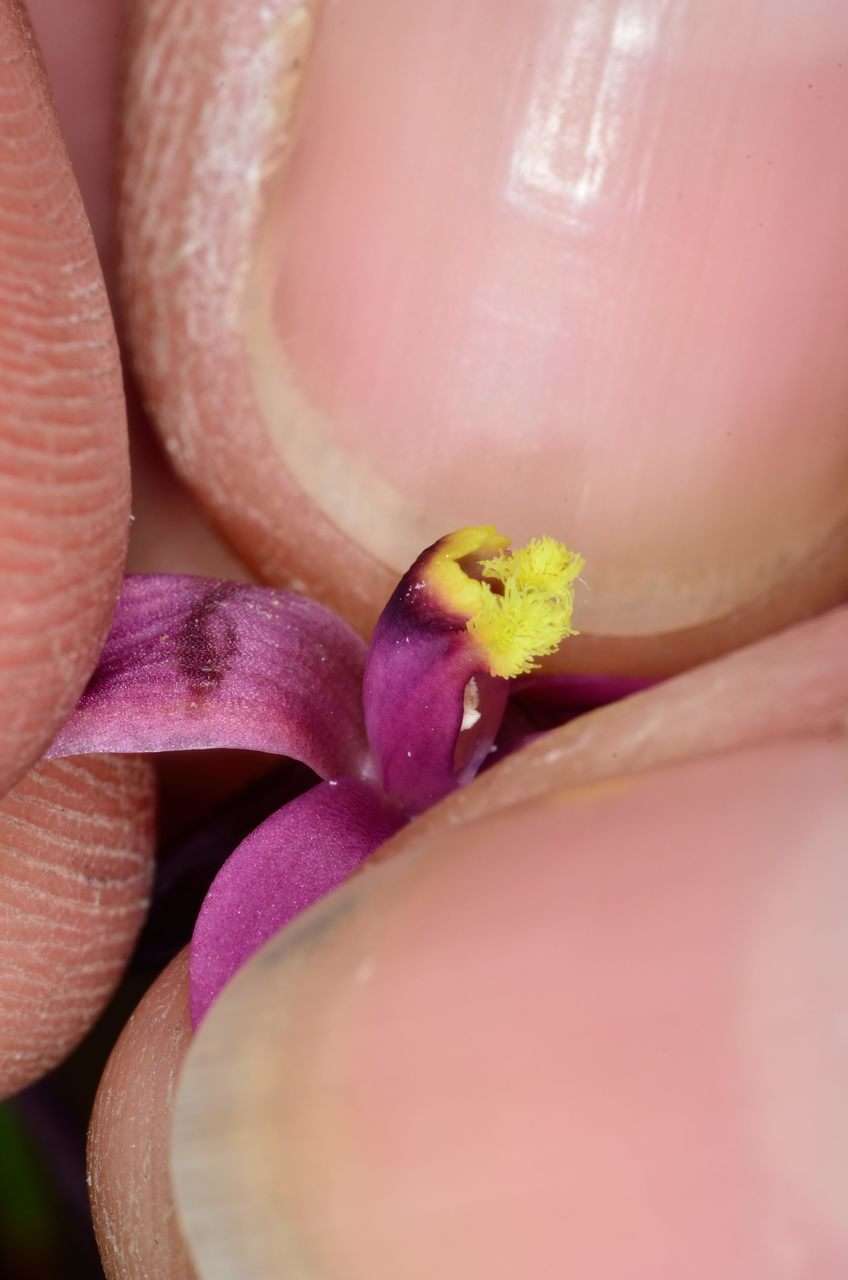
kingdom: Plantae
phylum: Tracheophyta
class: Liliopsida
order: Asparagales
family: Orchidaceae
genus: Thelymitra
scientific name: Thelymitra luteocilium
